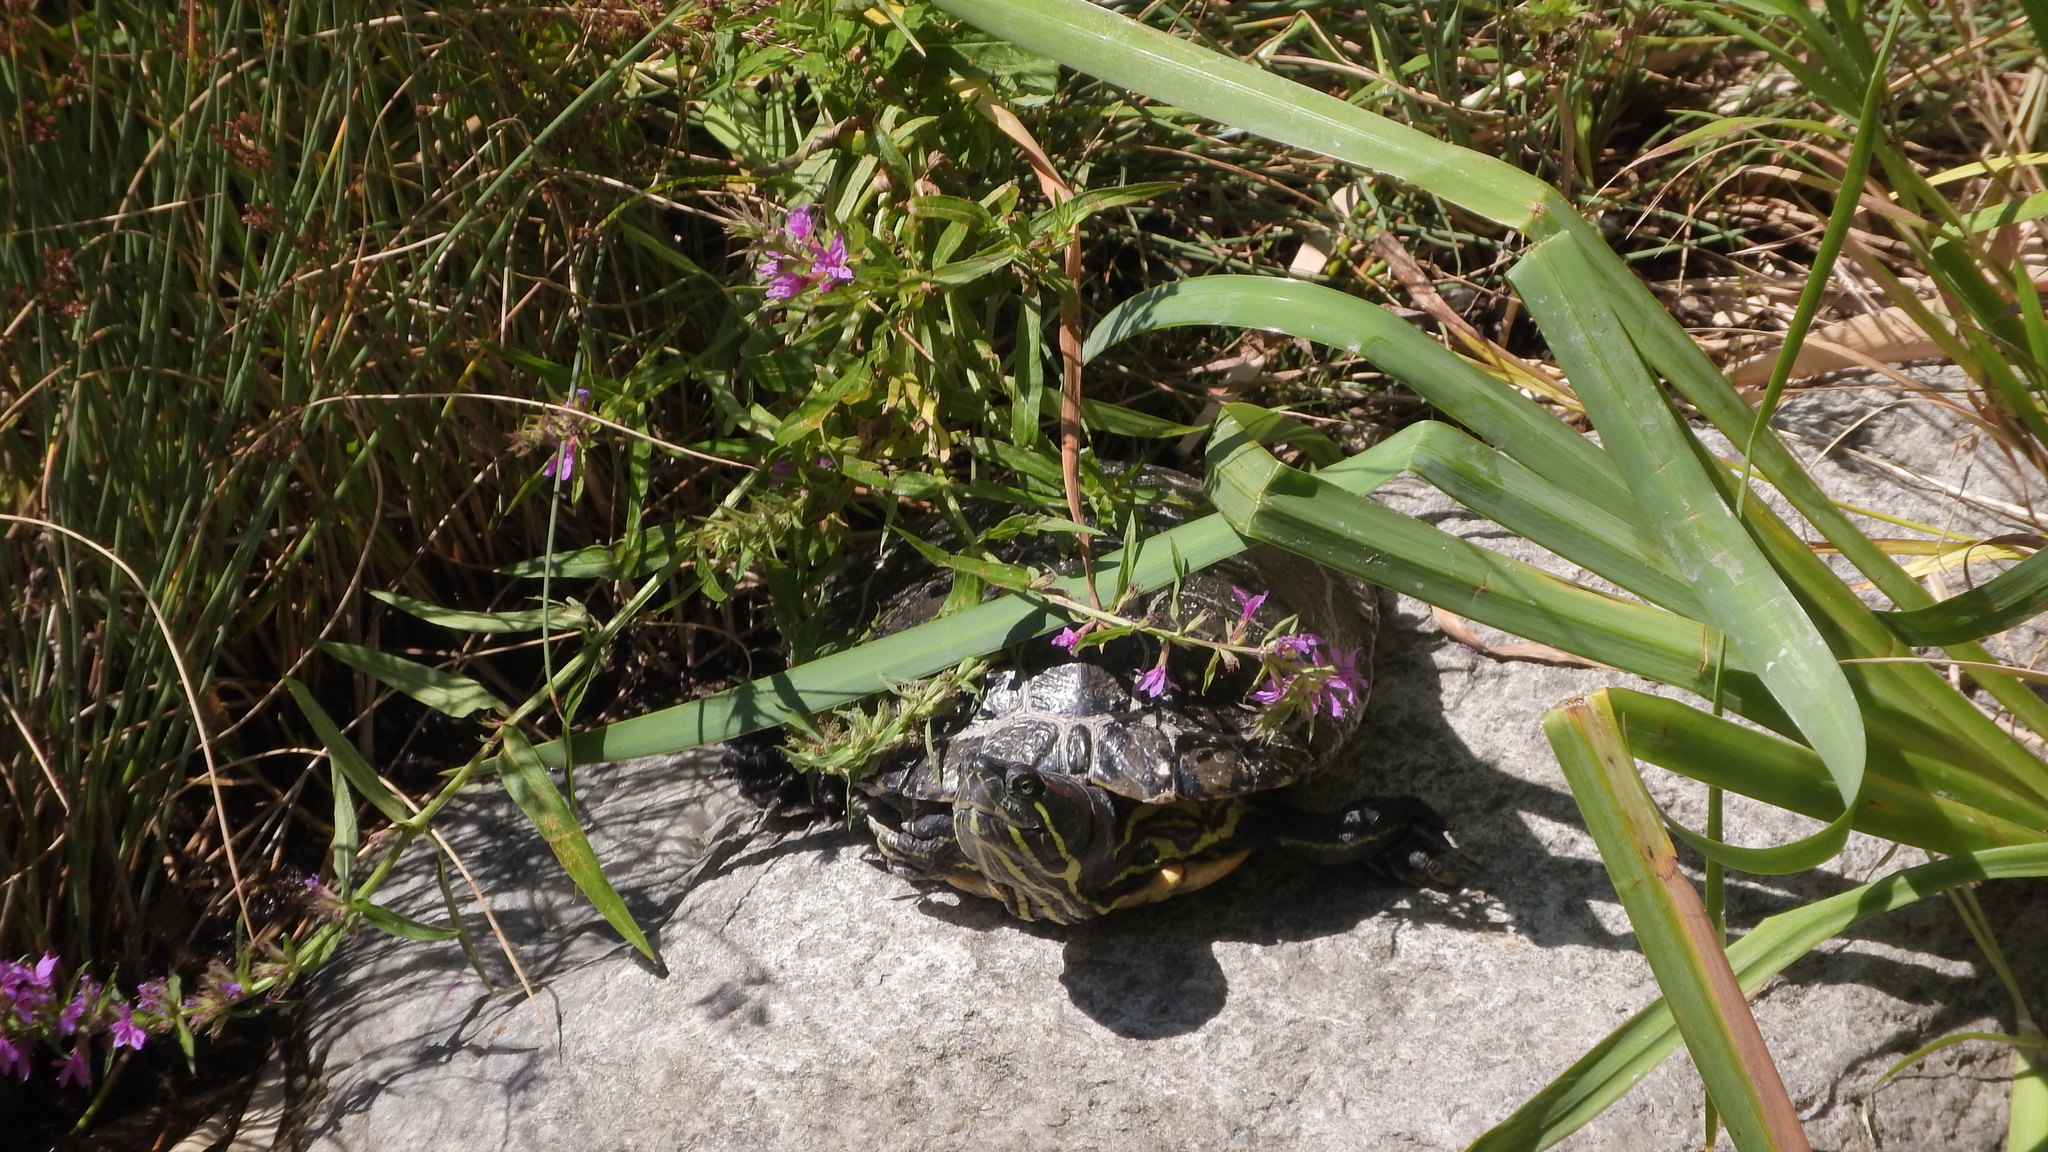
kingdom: Animalia
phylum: Chordata
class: Testudines
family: Emydidae
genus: Trachemys
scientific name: Trachemys scripta
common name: Slider
